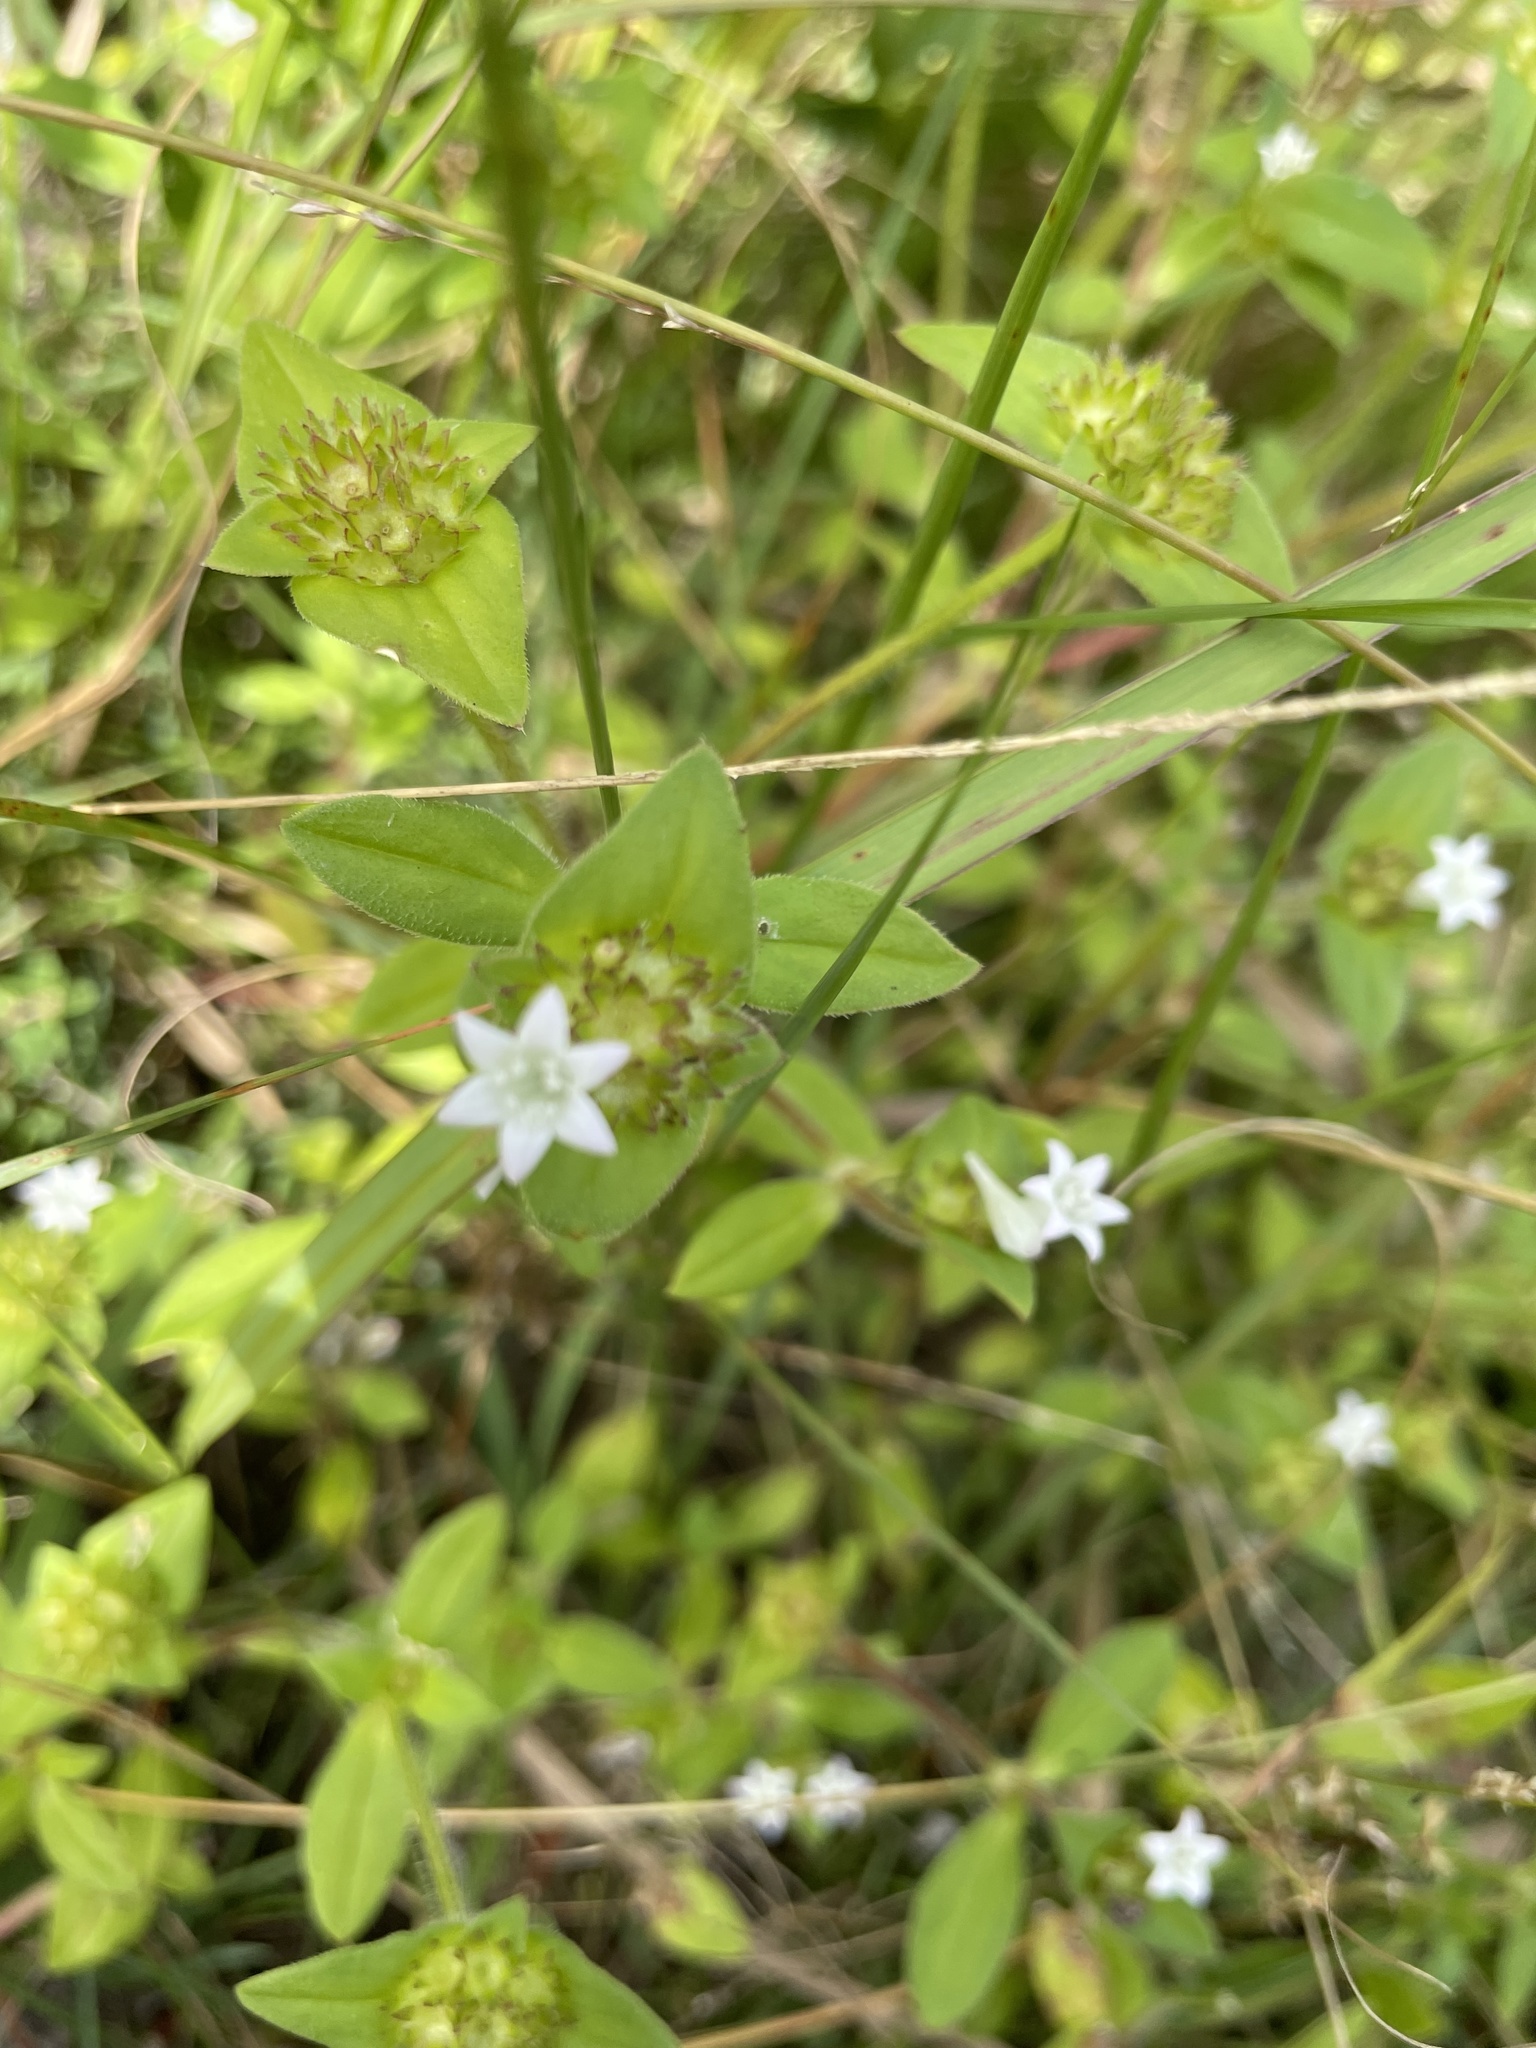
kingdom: Plantae
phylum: Tracheophyta
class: Magnoliopsida
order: Gentianales
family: Rubiaceae
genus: Richardia
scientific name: Richardia brasiliensis
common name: Tropical mexican clover
